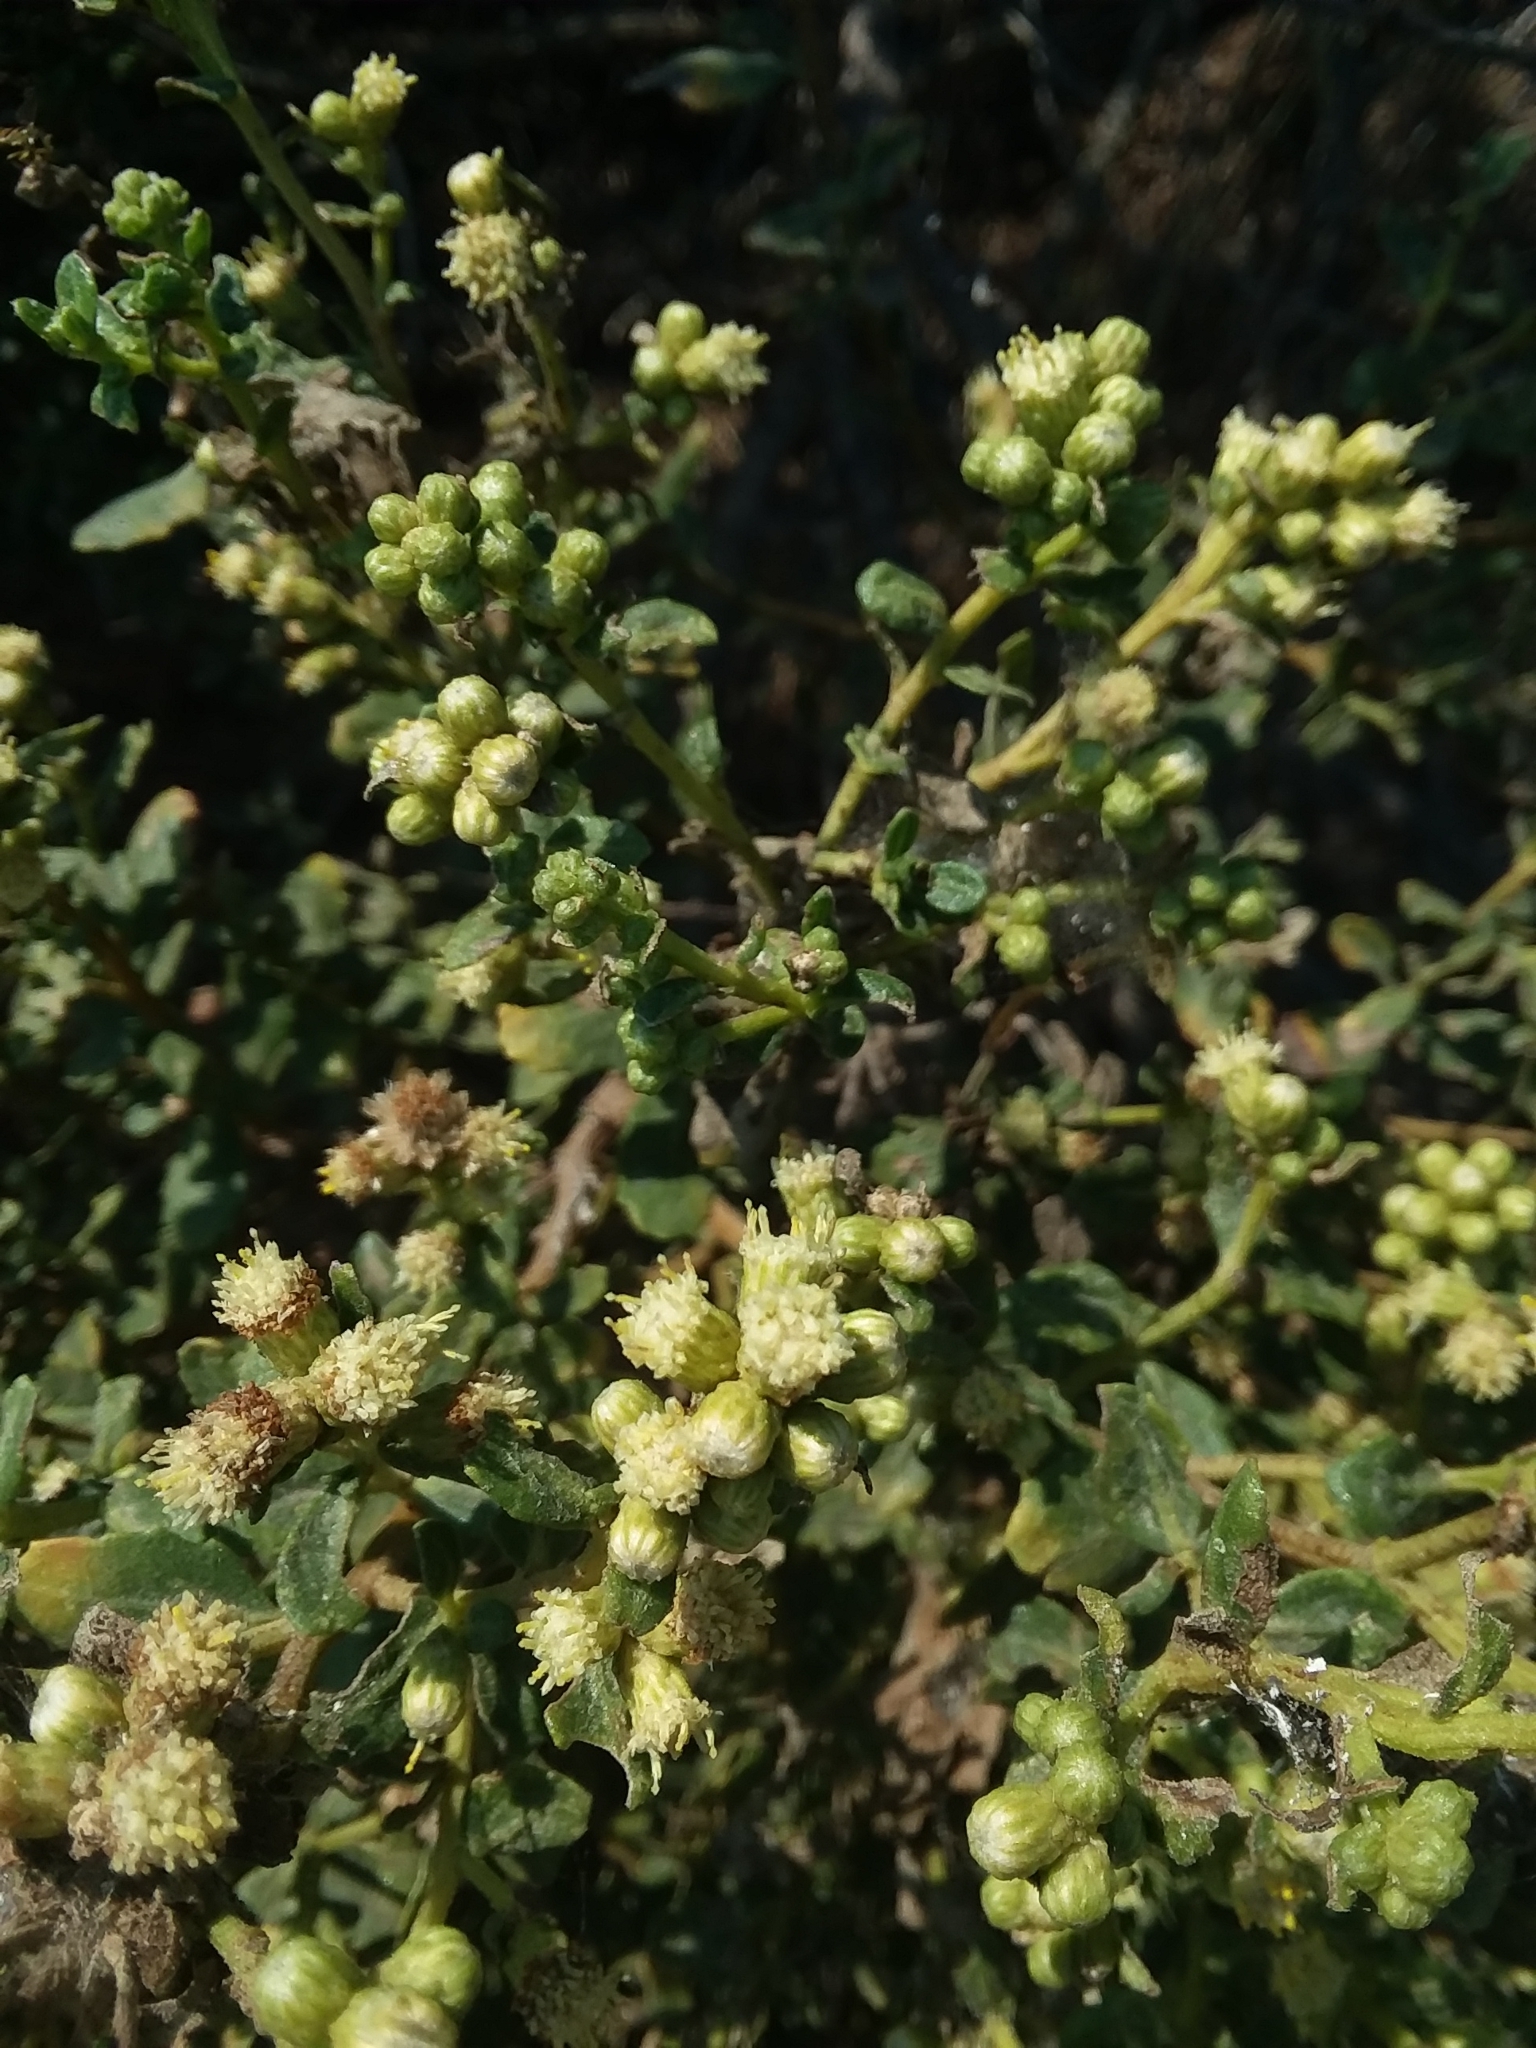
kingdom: Plantae
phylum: Tracheophyta
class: Magnoliopsida
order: Asterales
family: Asteraceae
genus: Baccharis
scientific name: Baccharis pilularis
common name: Coyotebrush
